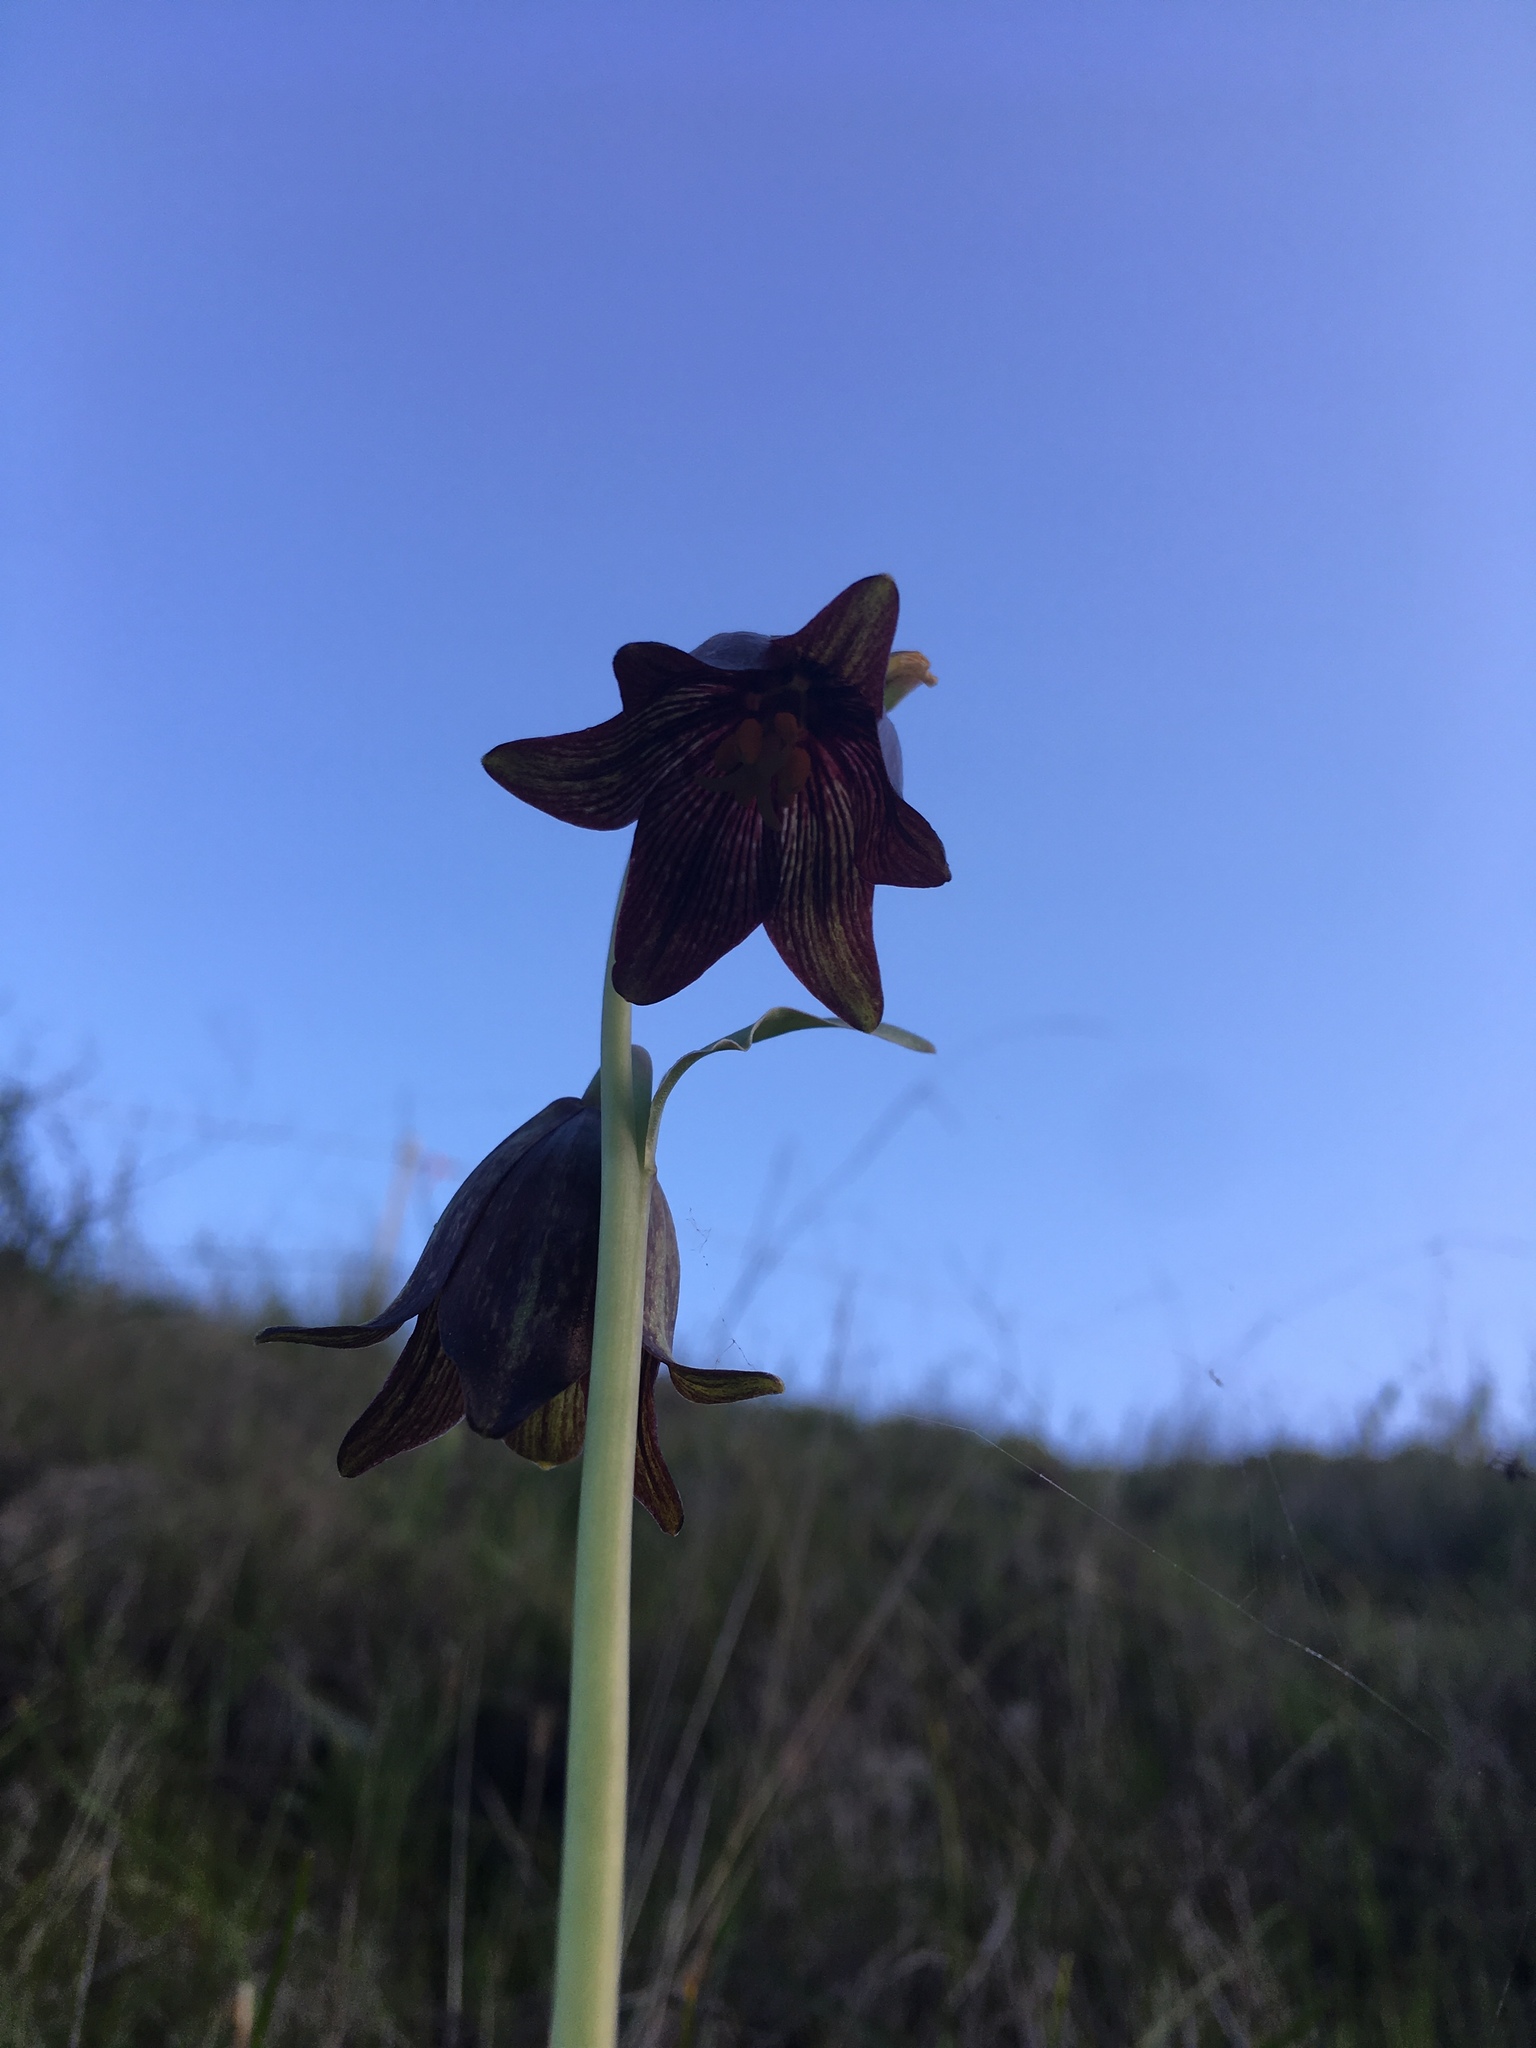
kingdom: Plantae
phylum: Tracheophyta
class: Liliopsida
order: Liliales
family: Liliaceae
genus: Fritillaria
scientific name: Fritillaria biflora
